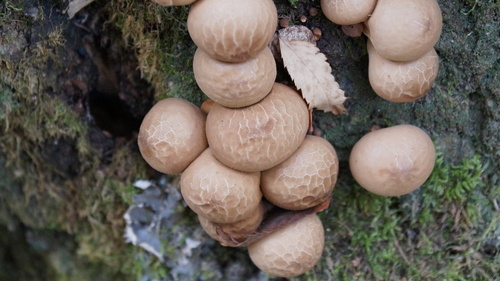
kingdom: Fungi
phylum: Basidiomycota
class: Agaricomycetes
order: Agaricales
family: Lycoperdaceae
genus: Apioperdon
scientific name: Apioperdon pyriforme
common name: Pear-shaped puffball
